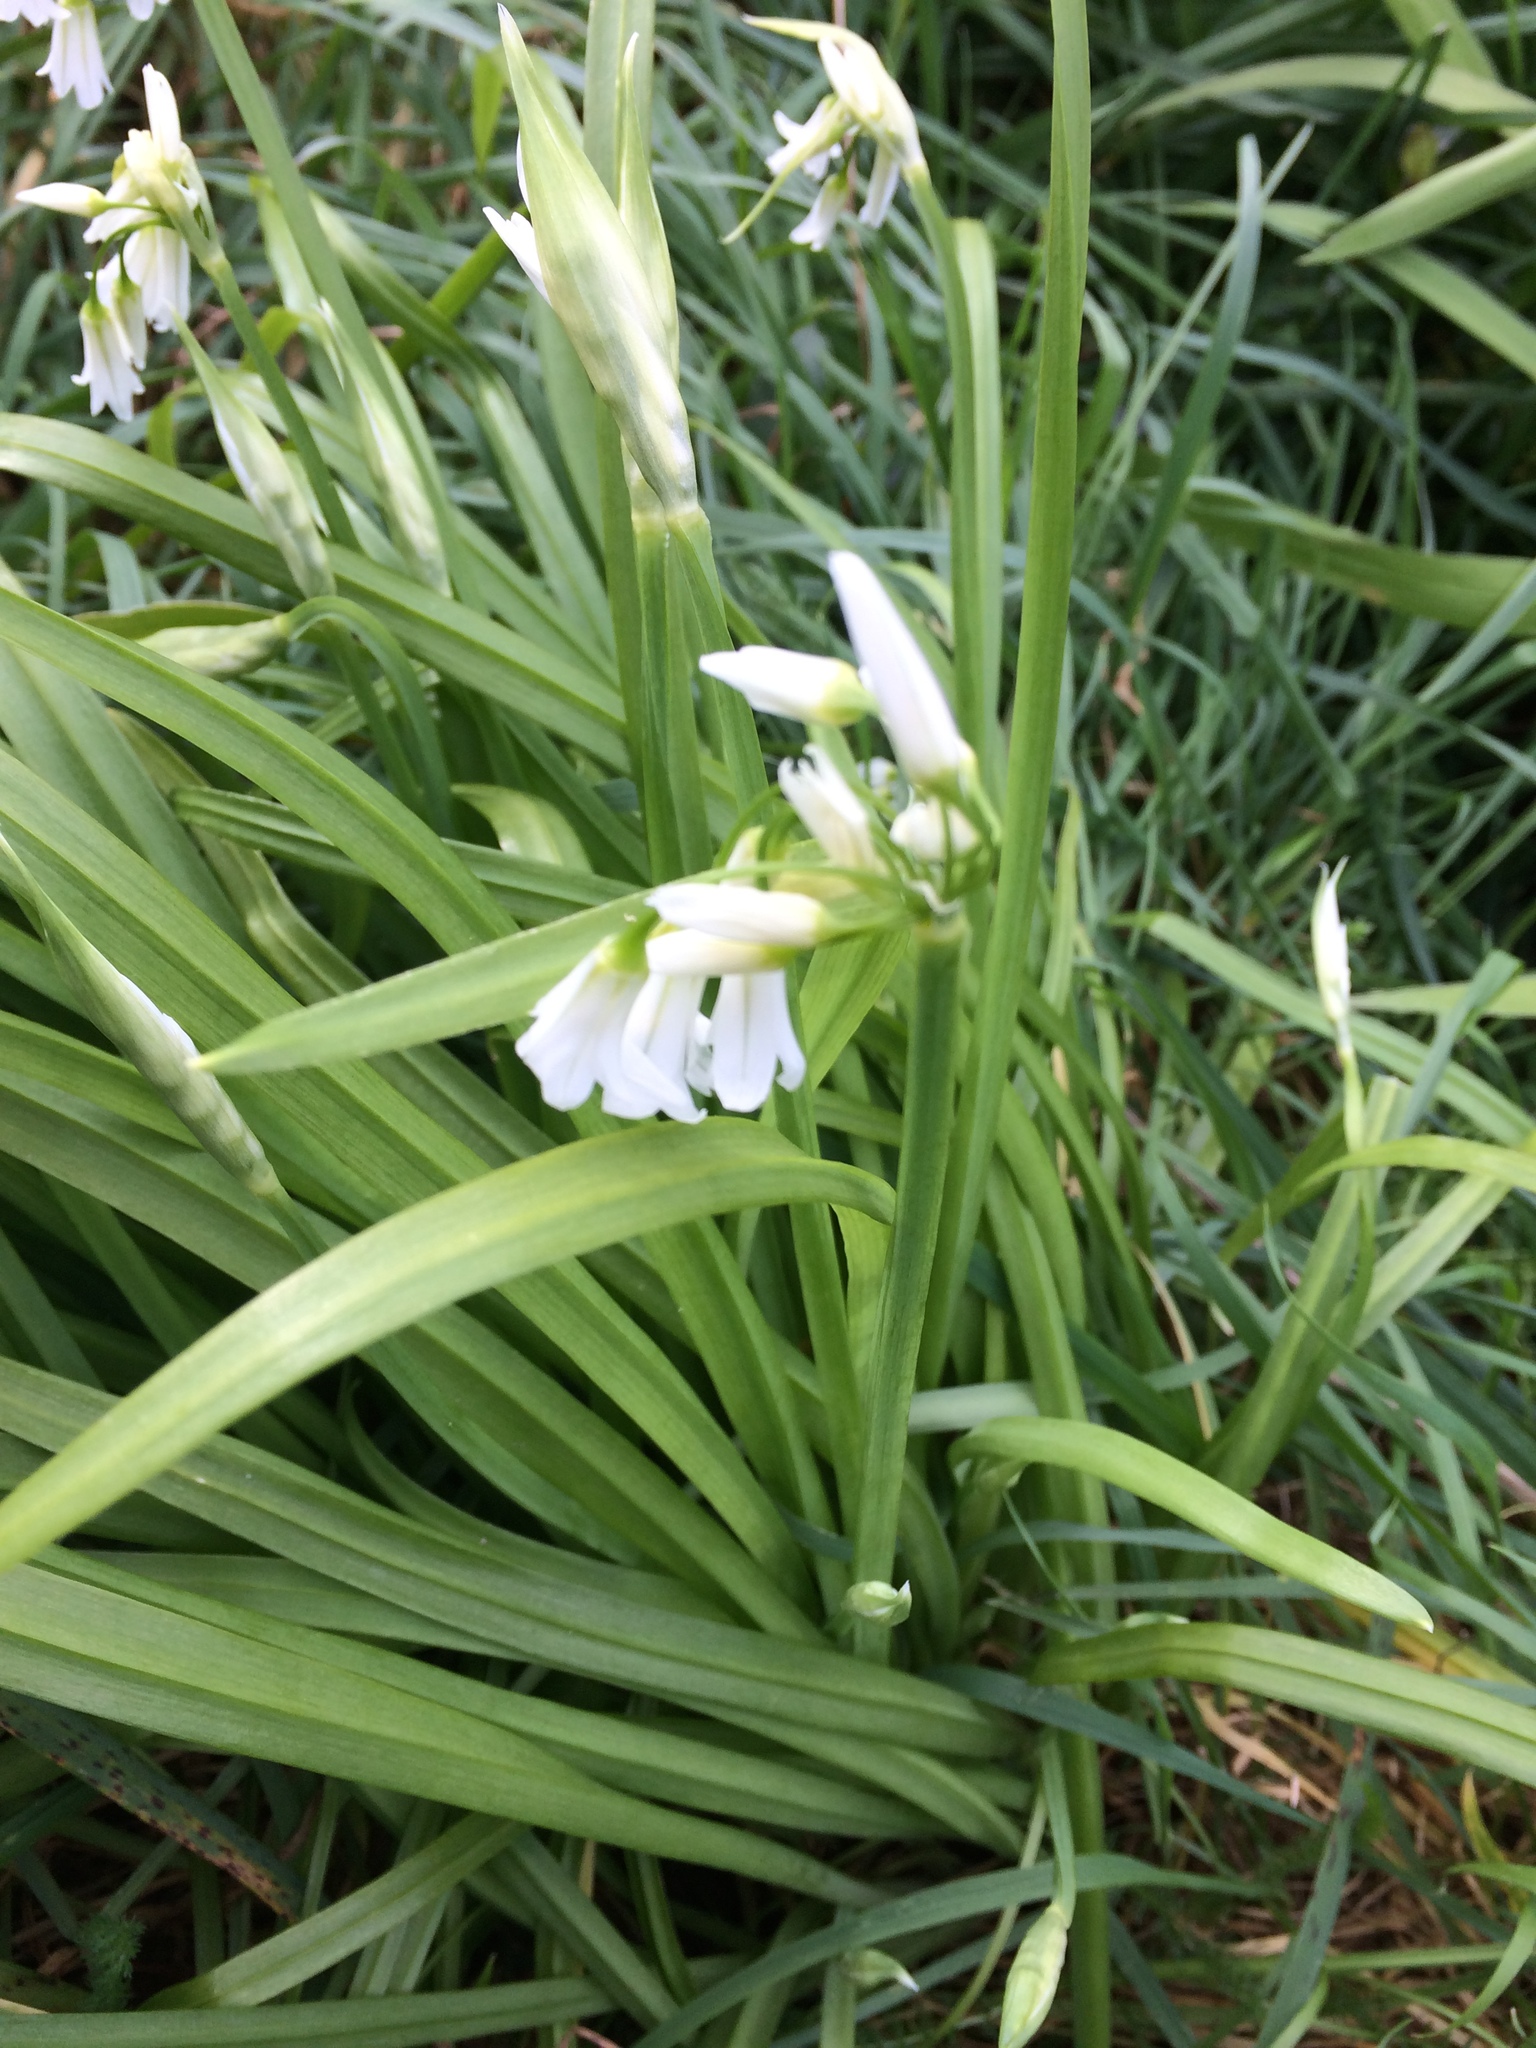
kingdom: Plantae
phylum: Tracheophyta
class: Liliopsida
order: Asparagales
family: Amaryllidaceae
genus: Allium
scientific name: Allium triquetrum
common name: Three-cornered garlic
